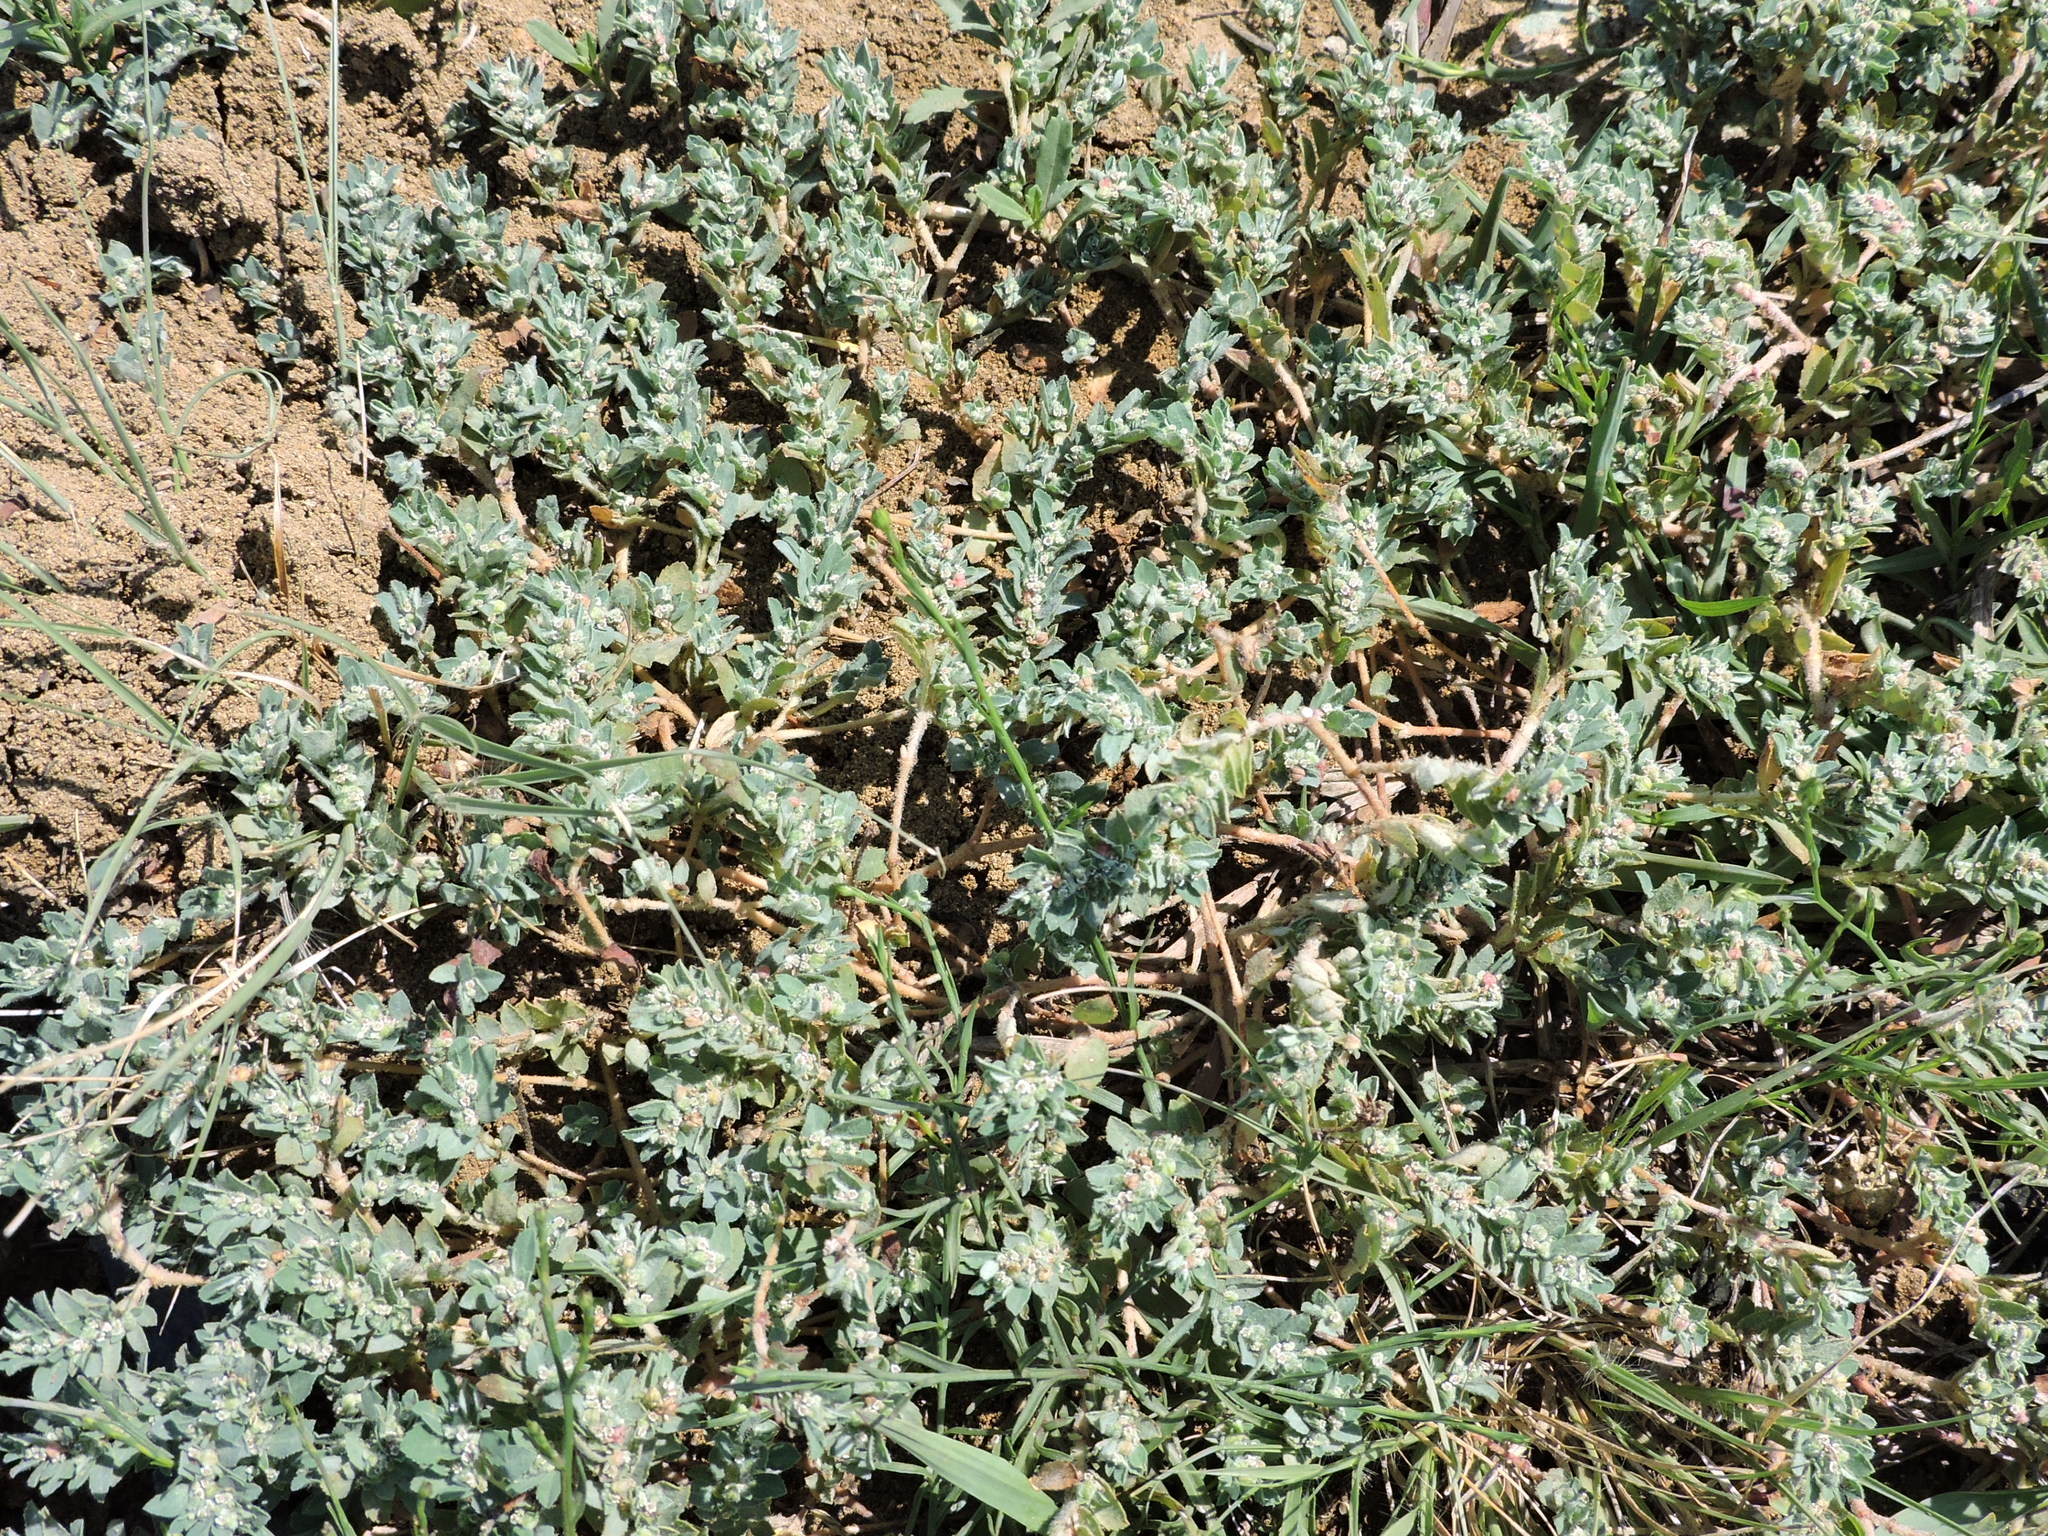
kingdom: Plantae
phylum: Tracheophyta
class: Magnoliopsida
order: Malpighiales
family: Euphorbiaceae
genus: Euphorbia
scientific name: Euphorbia stictospora
